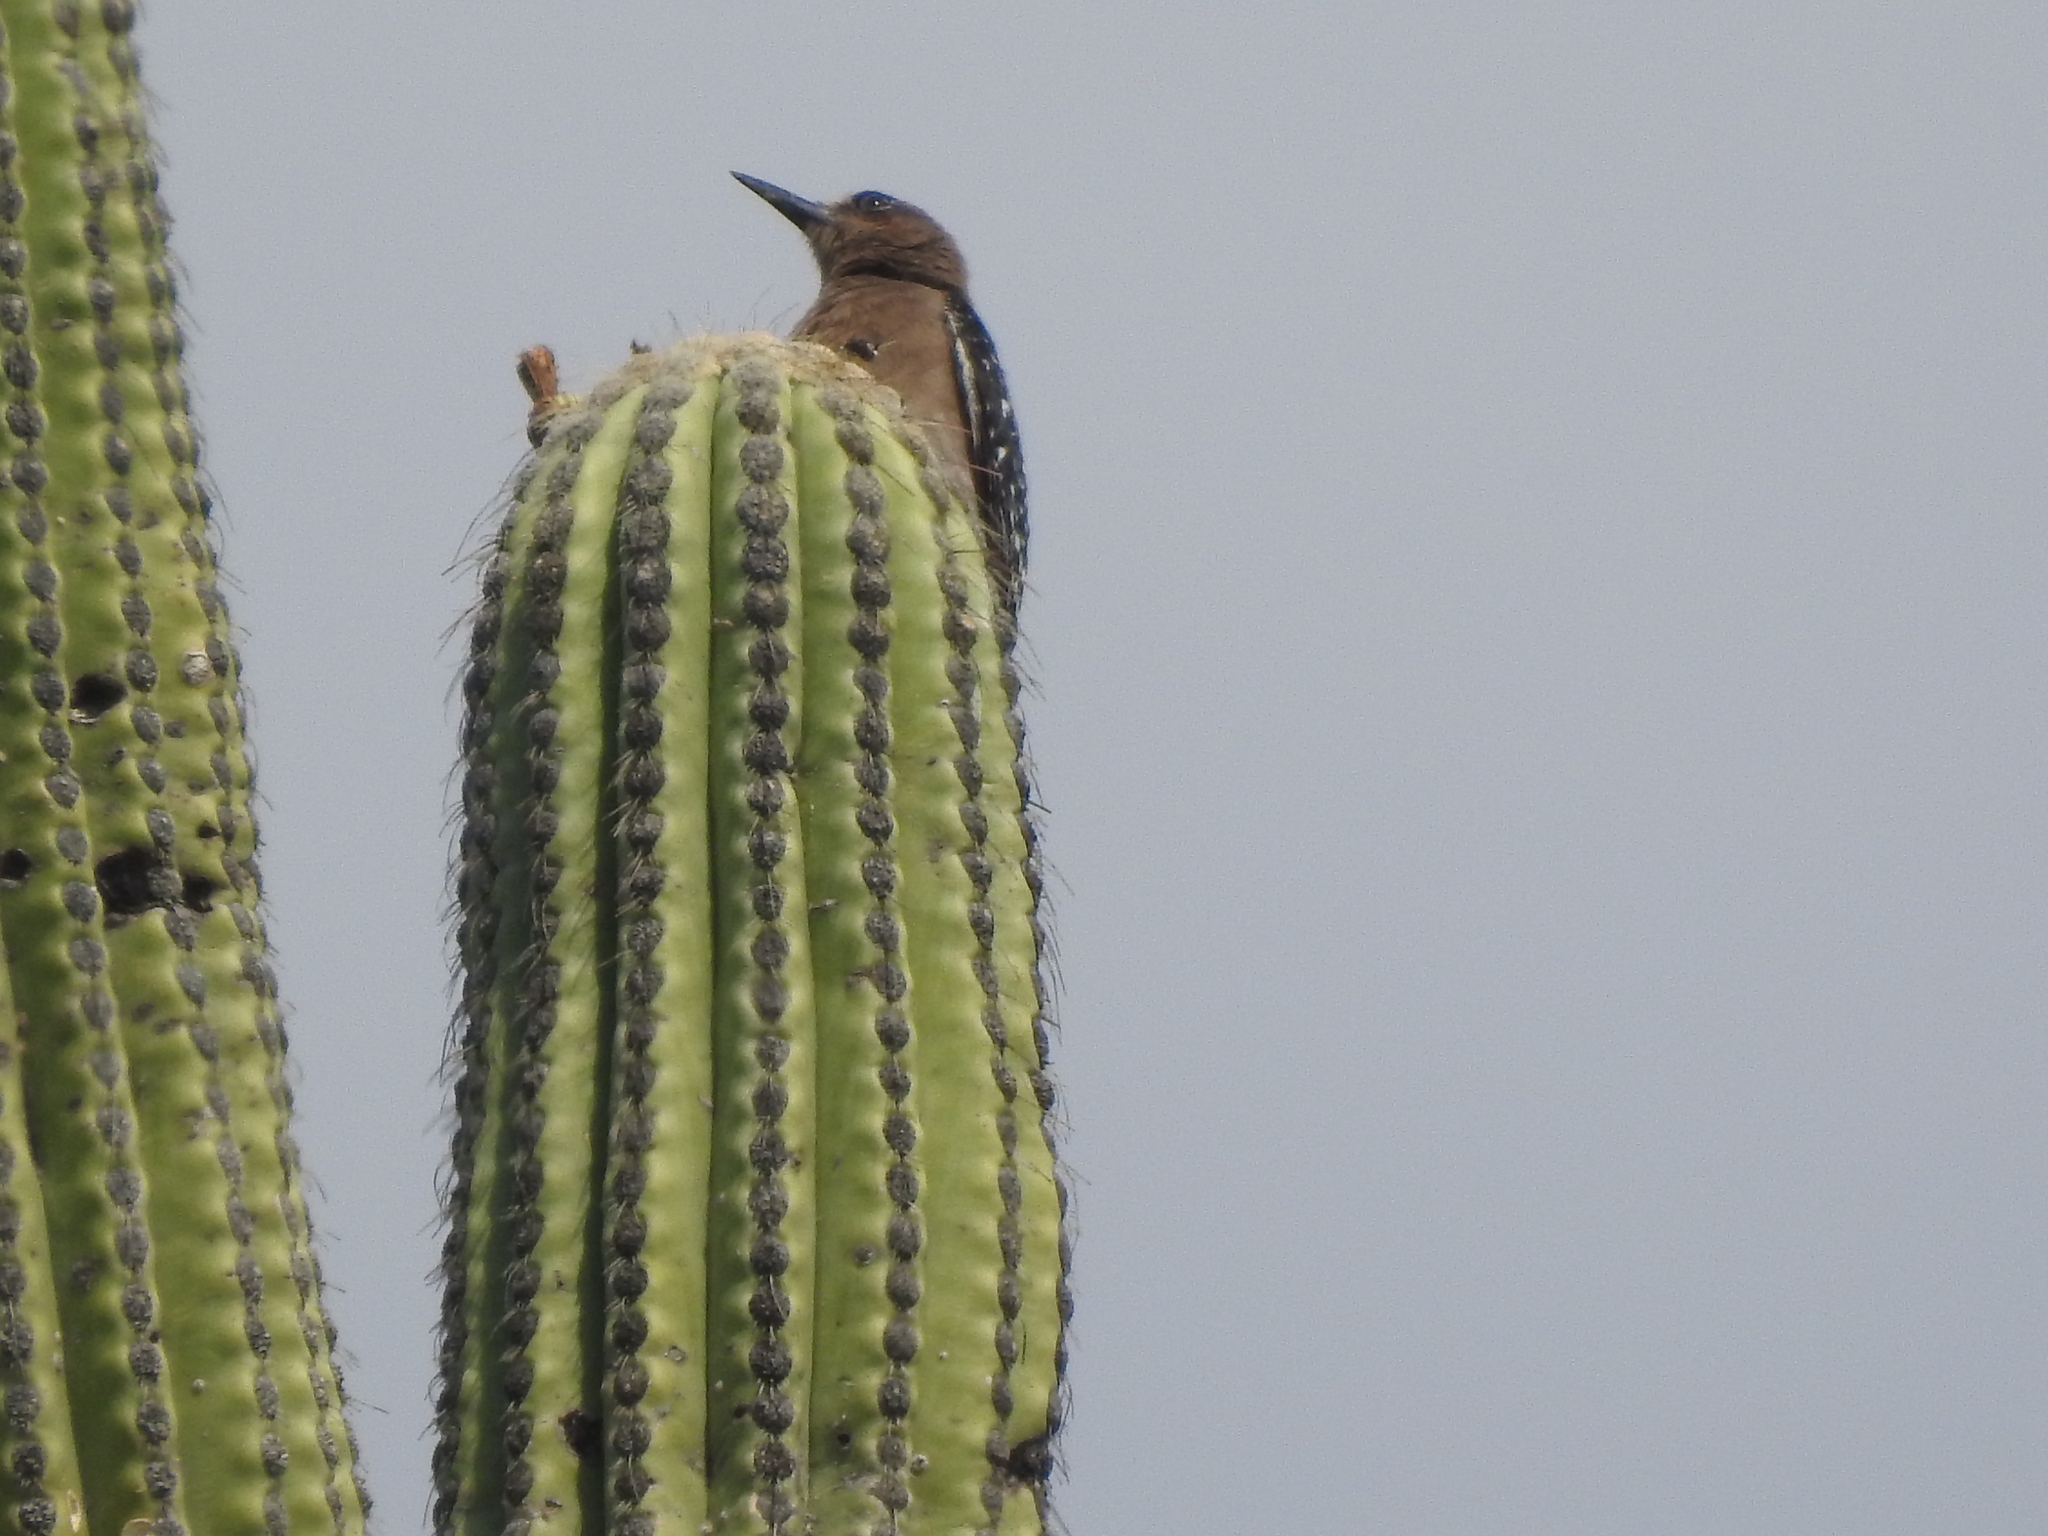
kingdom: Animalia
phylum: Chordata
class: Aves
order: Piciformes
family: Picidae
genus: Melanerpes
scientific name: Melanerpes hypopolius
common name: Grey-breasted woodpecker
